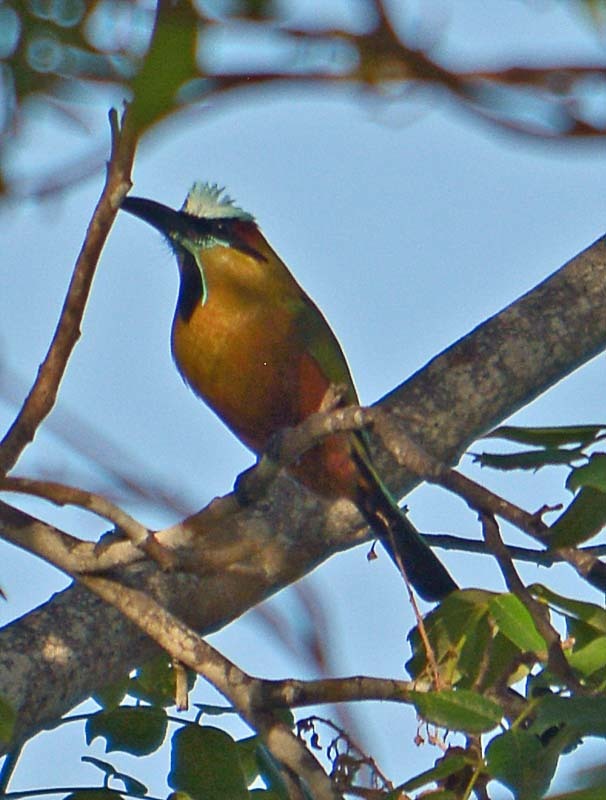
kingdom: Animalia
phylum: Chordata
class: Aves
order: Coraciiformes
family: Momotidae
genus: Eumomota
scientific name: Eumomota superciliosa
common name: Turquoise-browed motmot
